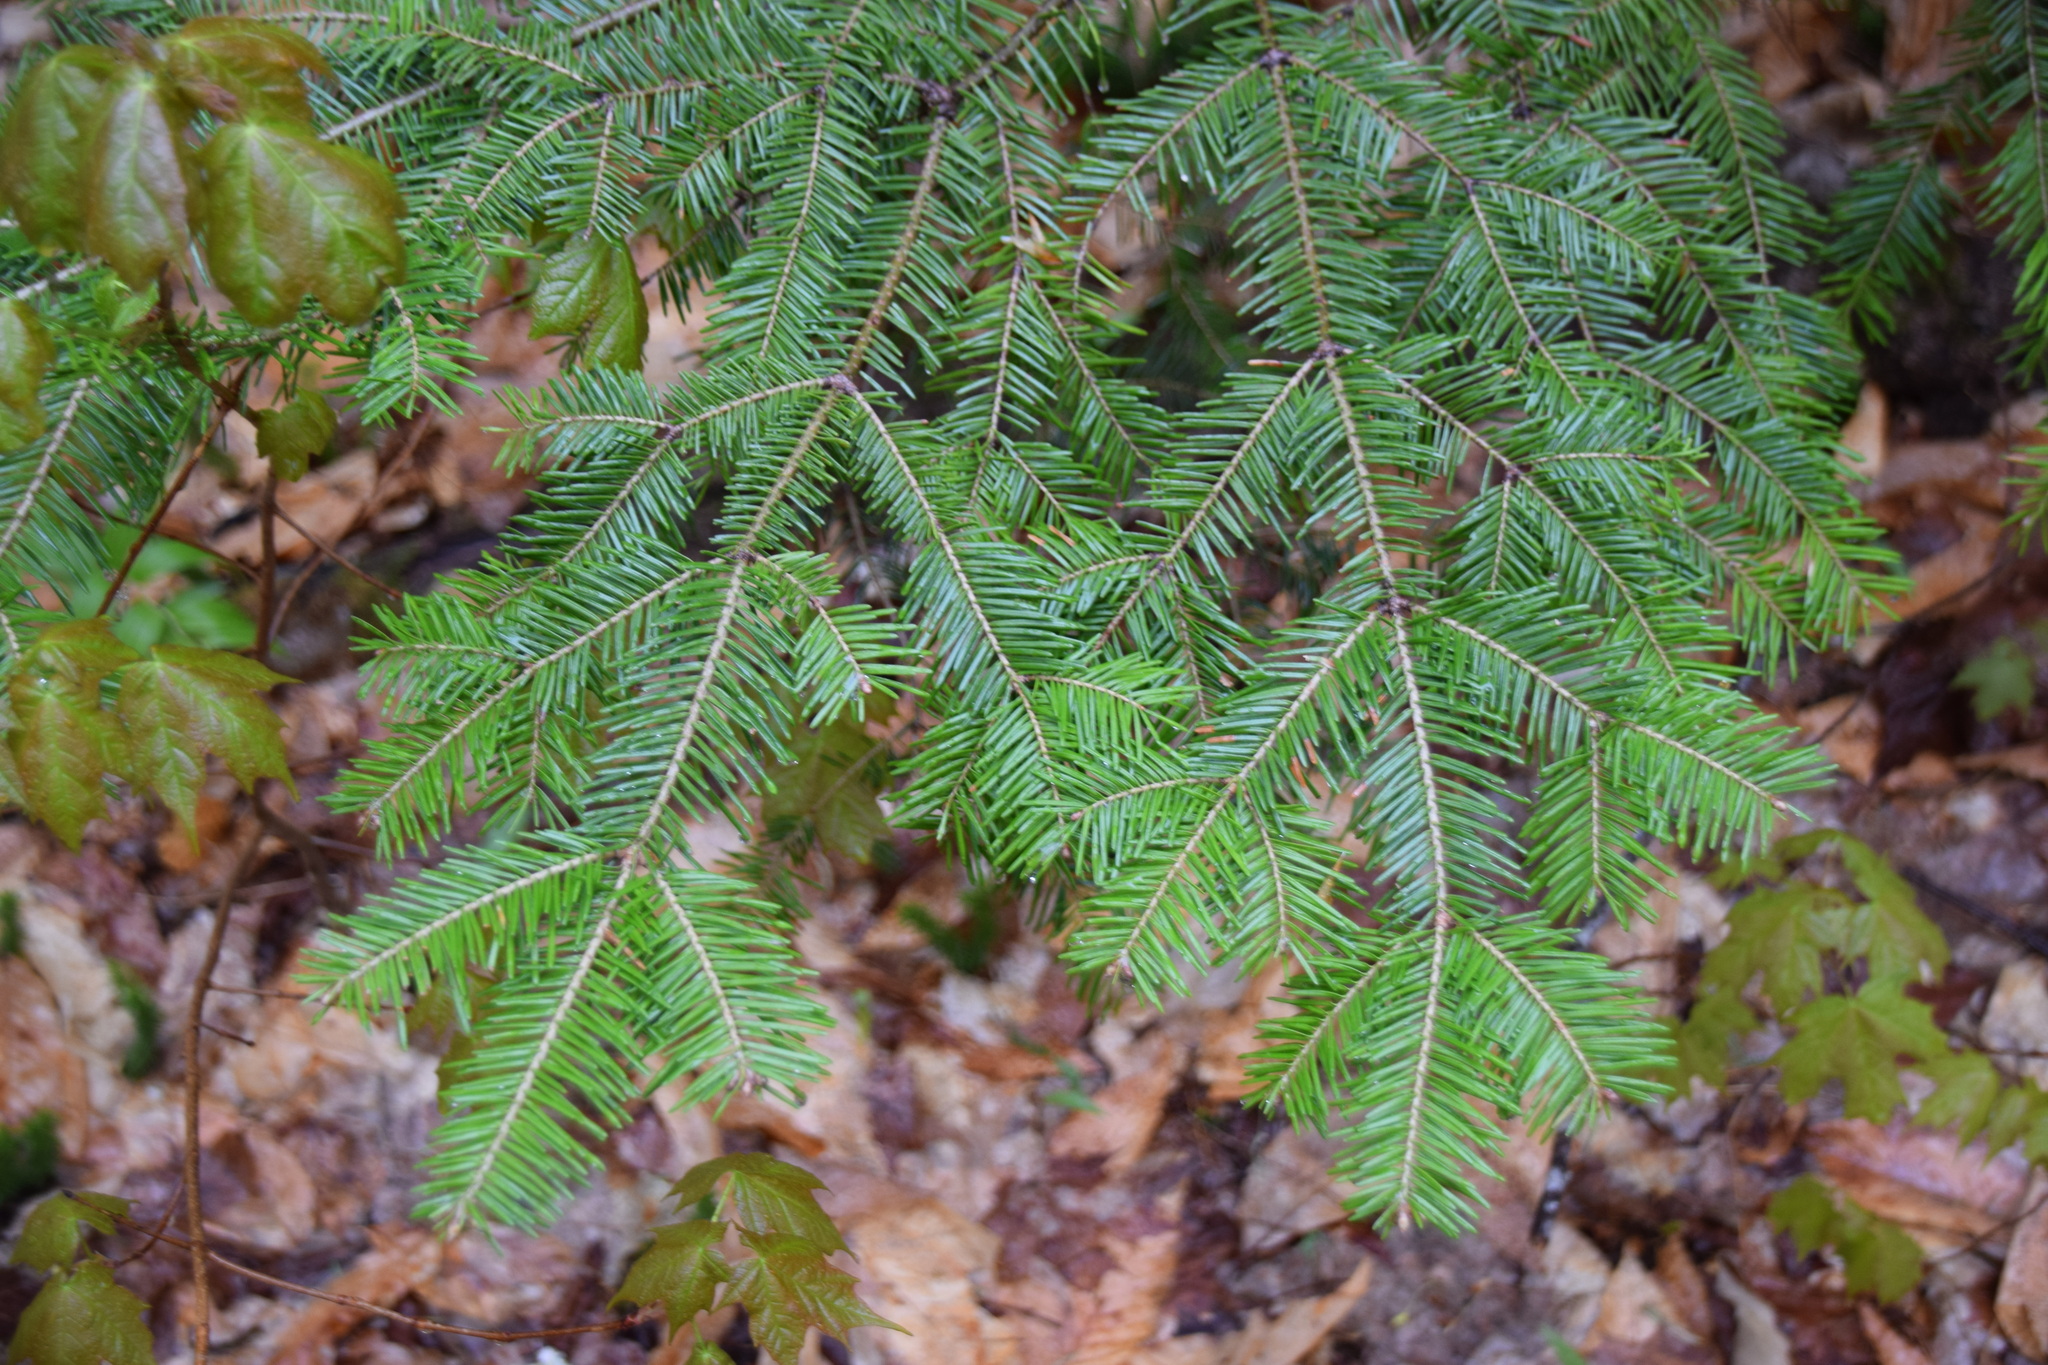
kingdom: Plantae
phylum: Tracheophyta
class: Pinopsida
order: Pinales
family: Pinaceae
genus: Abies
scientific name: Abies balsamea
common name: Balsam fir
